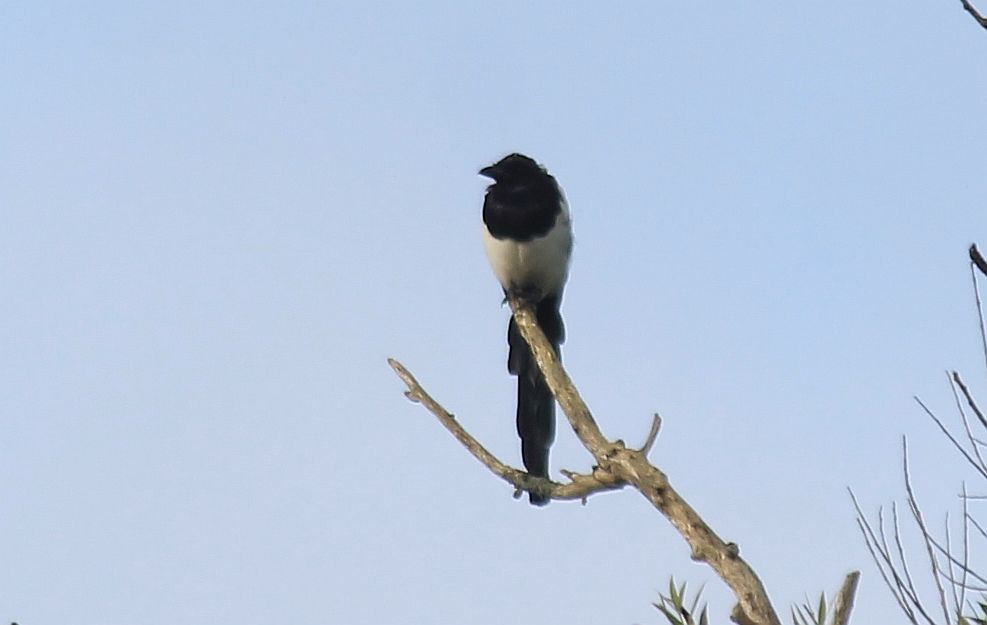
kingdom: Animalia
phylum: Chordata
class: Aves
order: Passeriformes
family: Corvidae
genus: Pica
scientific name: Pica pica
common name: Eurasian magpie
